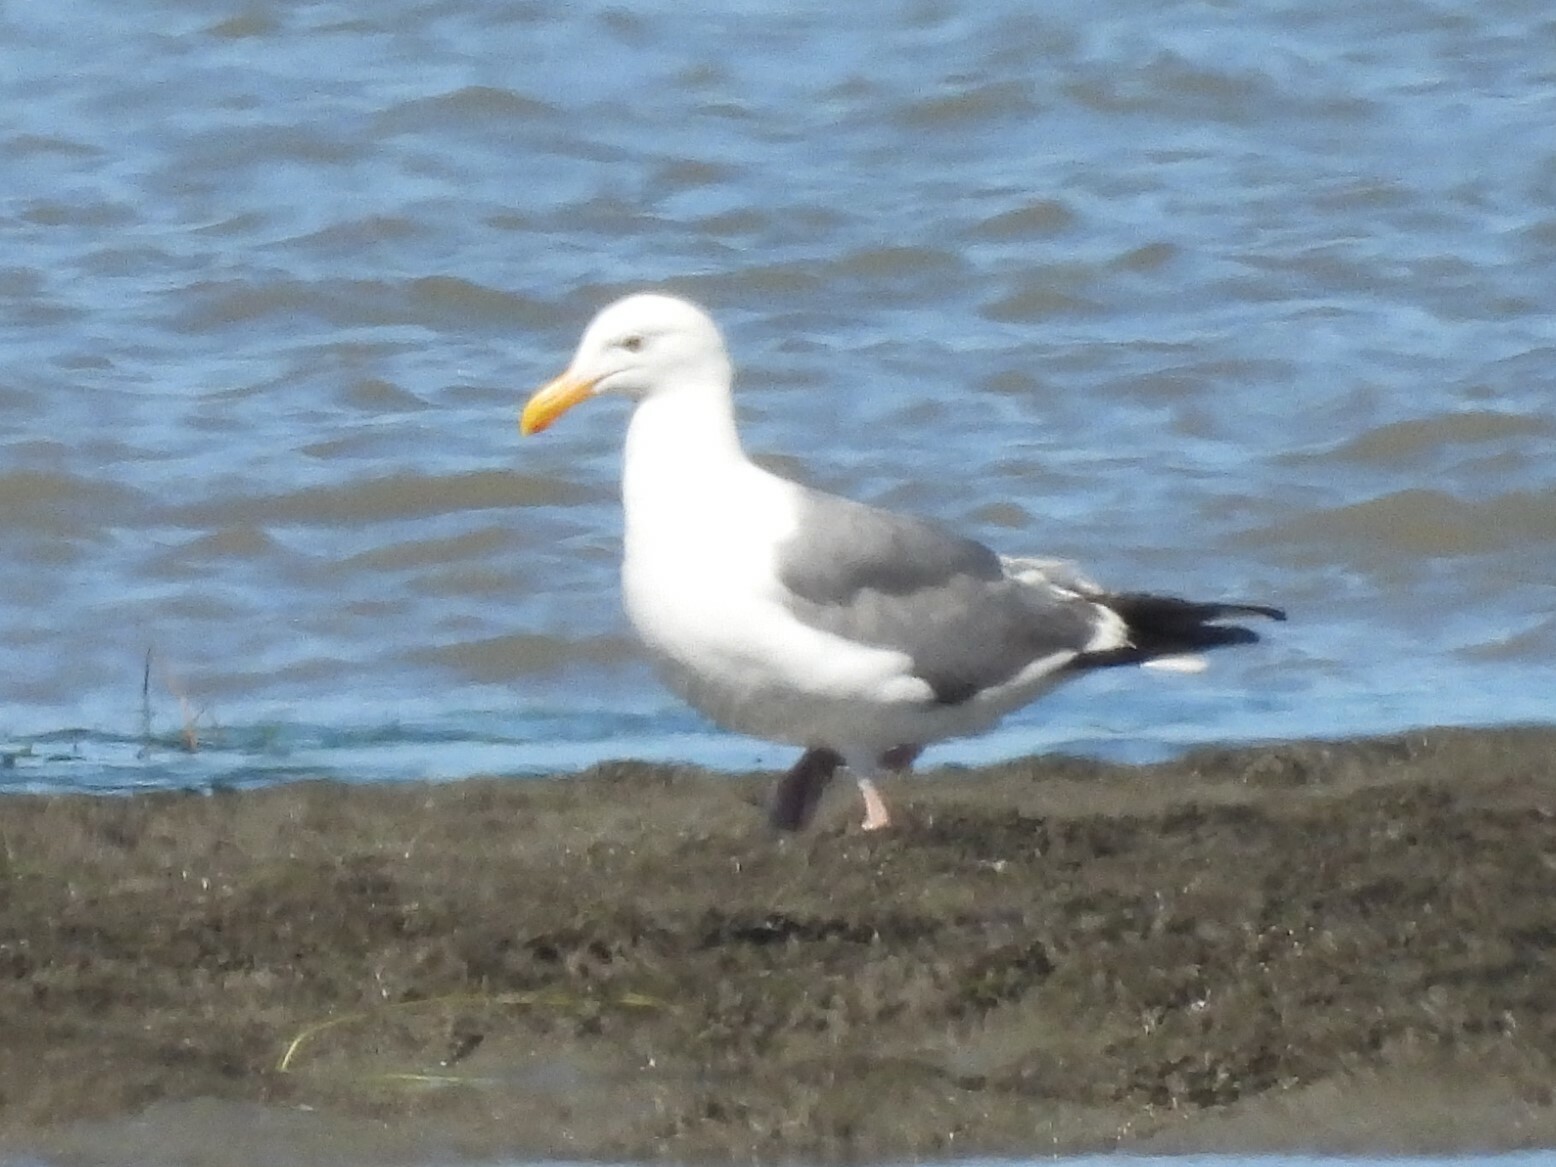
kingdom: Animalia
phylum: Chordata
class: Aves
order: Charadriiformes
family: Laridae
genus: Larus
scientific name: Larus occidentalis
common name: Western gull
